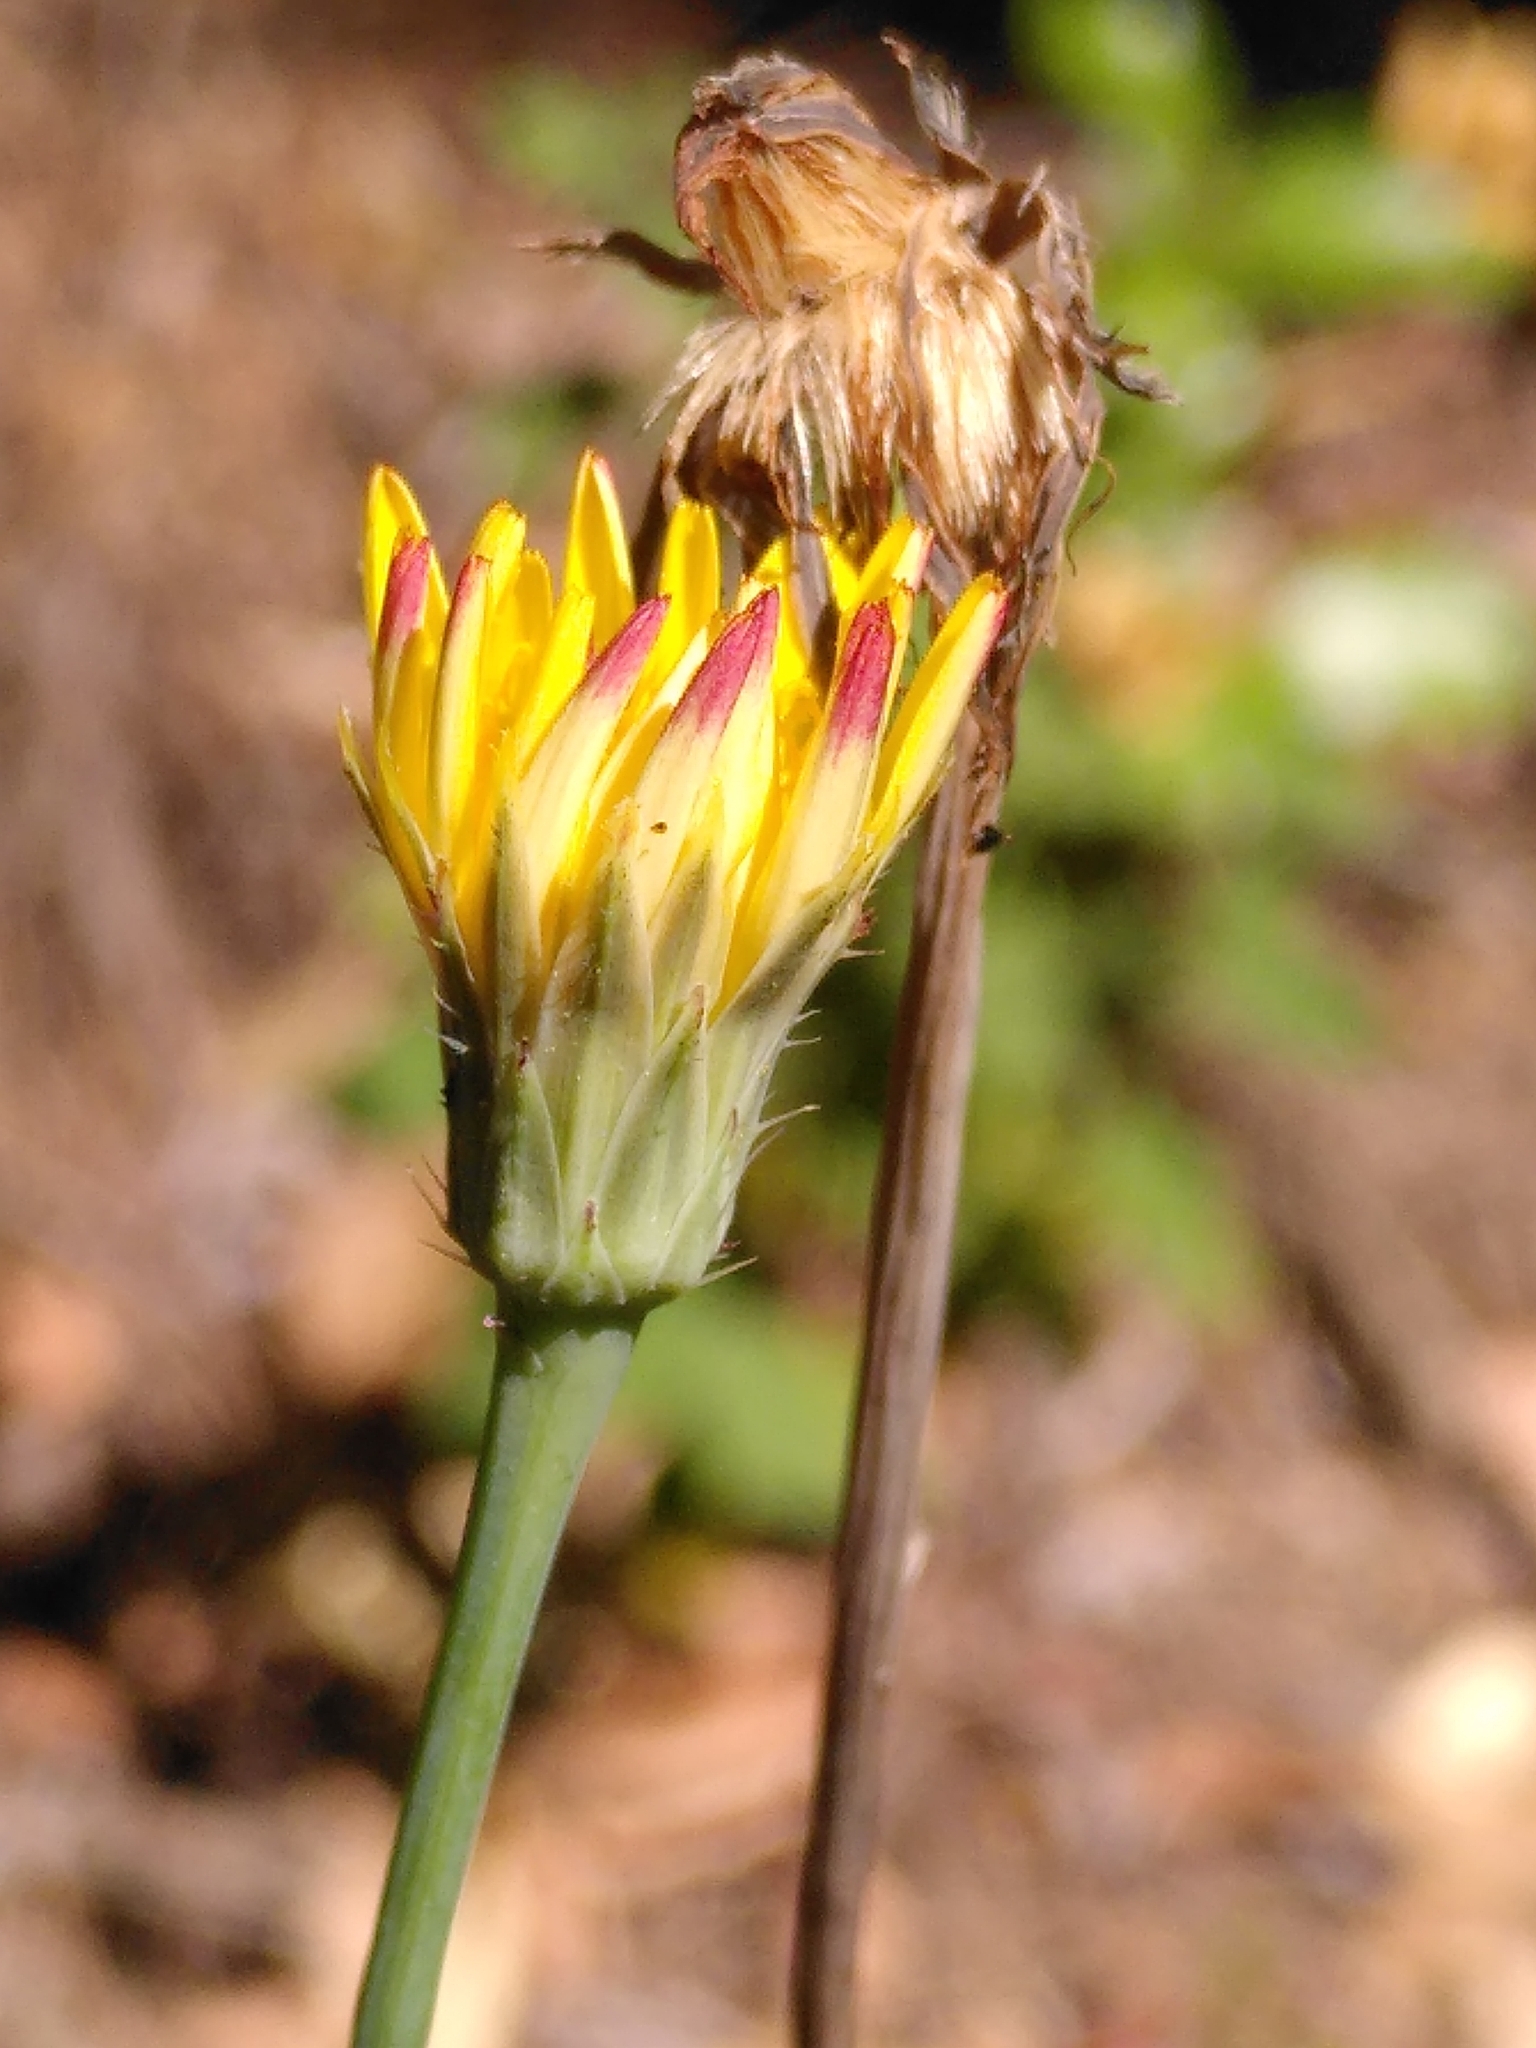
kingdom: Plantae
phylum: Tracheophyta
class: Magnoliopsida
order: Asterales
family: Asteraceae
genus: Hypochaeris
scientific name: Hypochaeris radicata
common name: Flatweed
